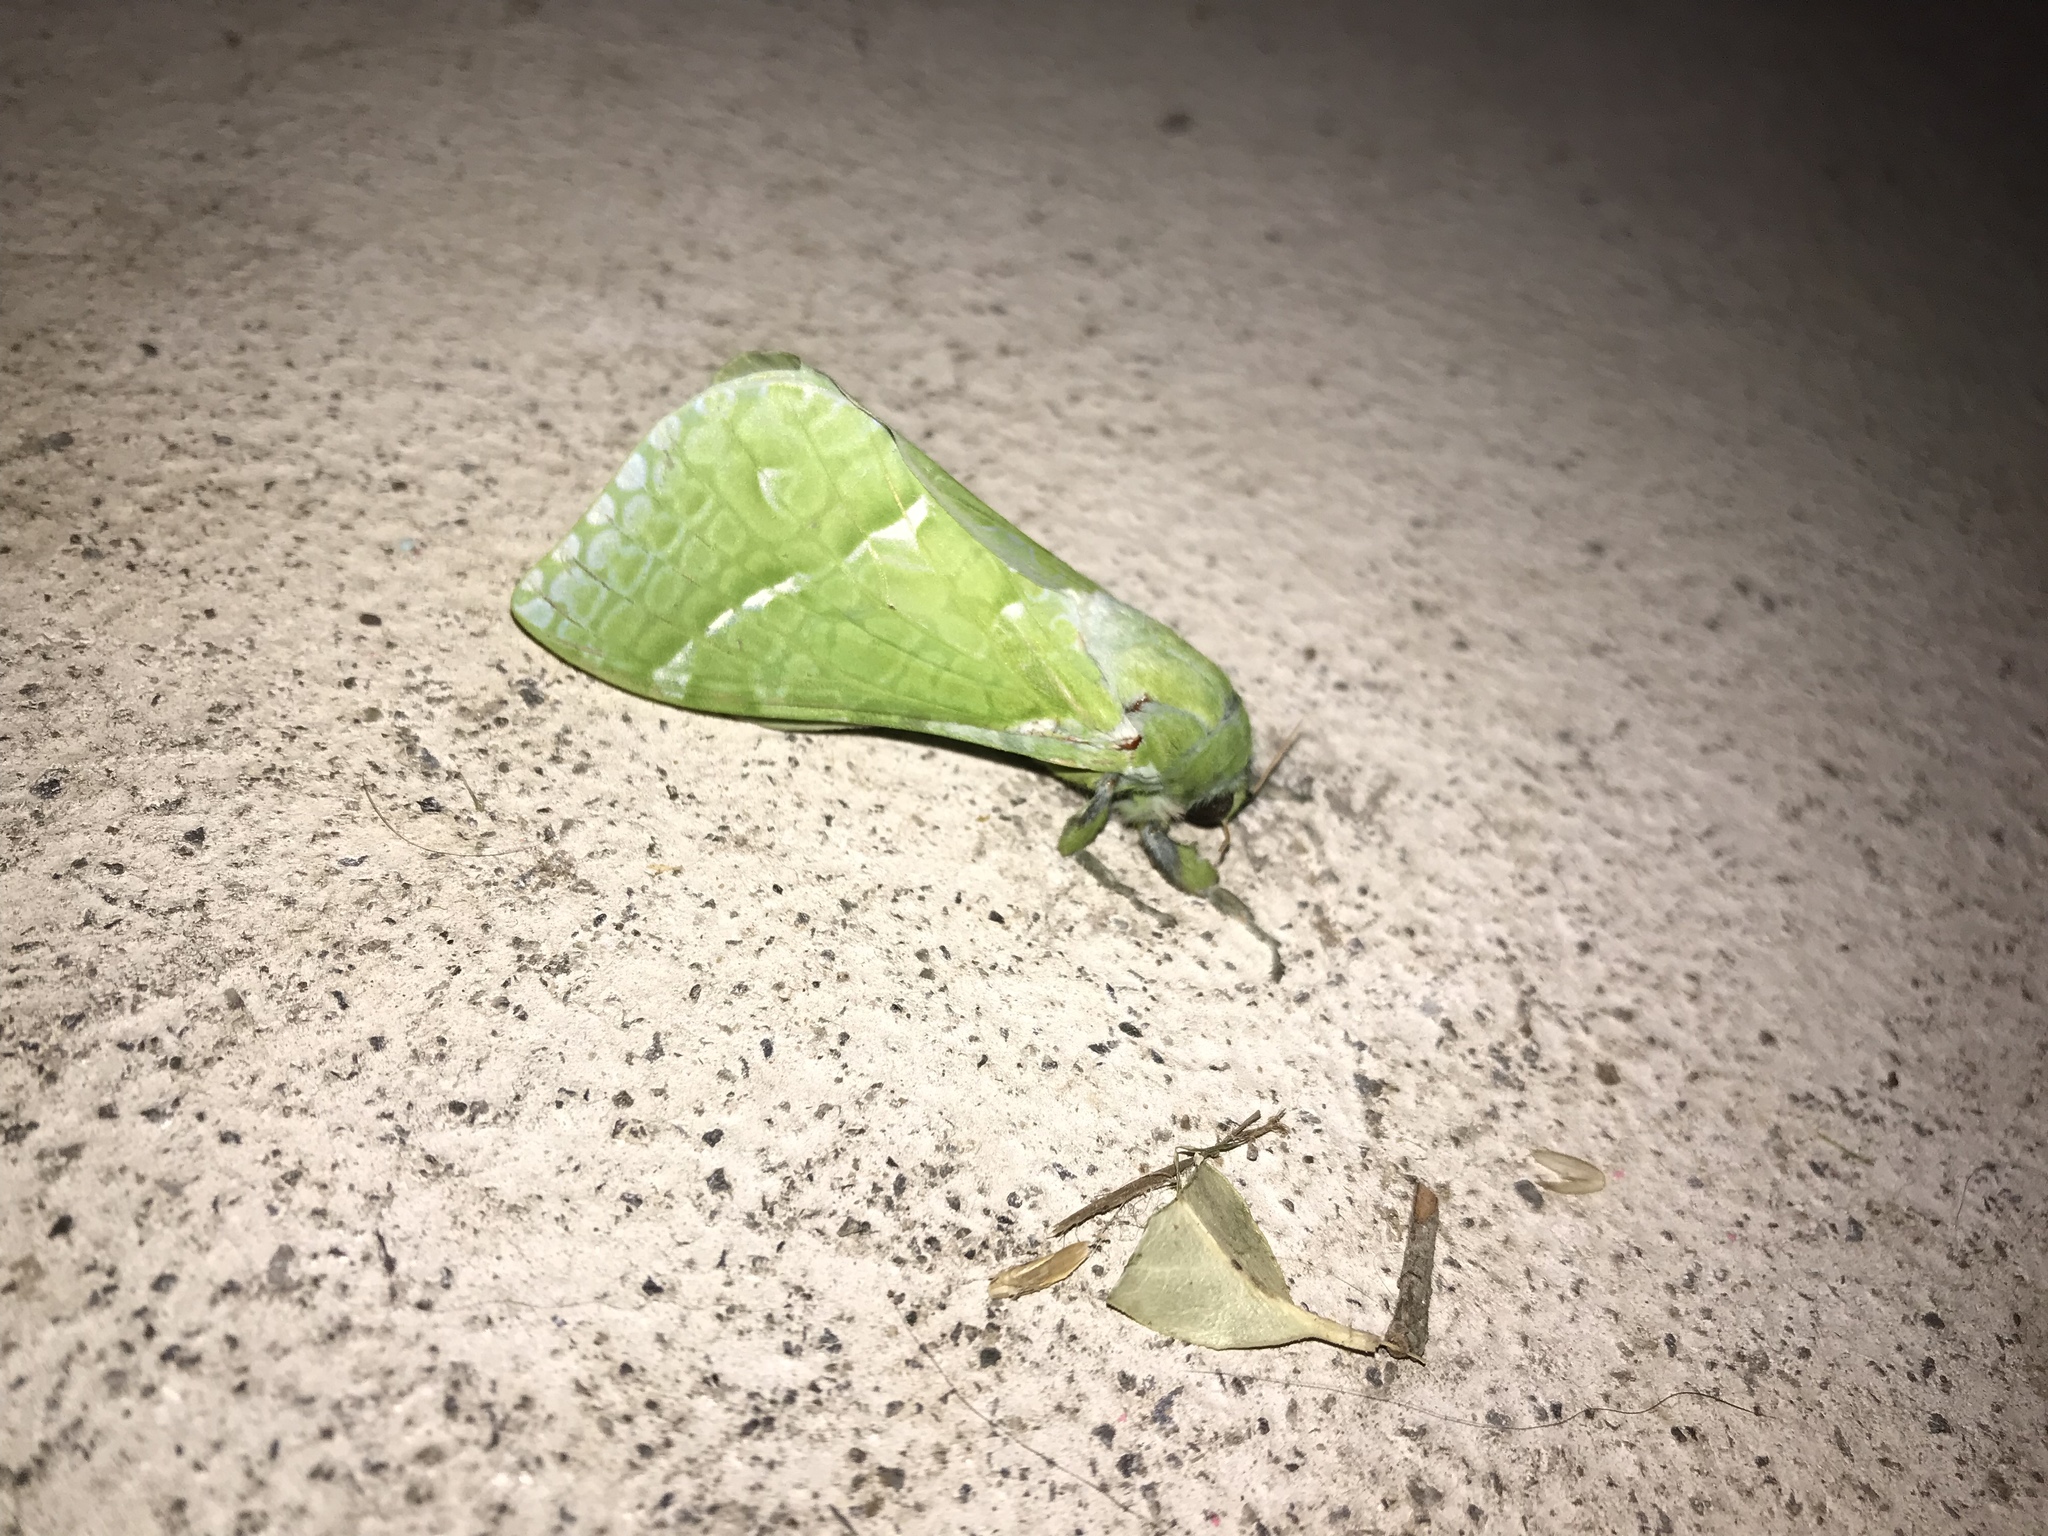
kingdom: Animalia
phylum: Arthropoda
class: Insecta
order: Lepidoptera
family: Hepialidae
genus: Aenetus
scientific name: Aenetus virescens
